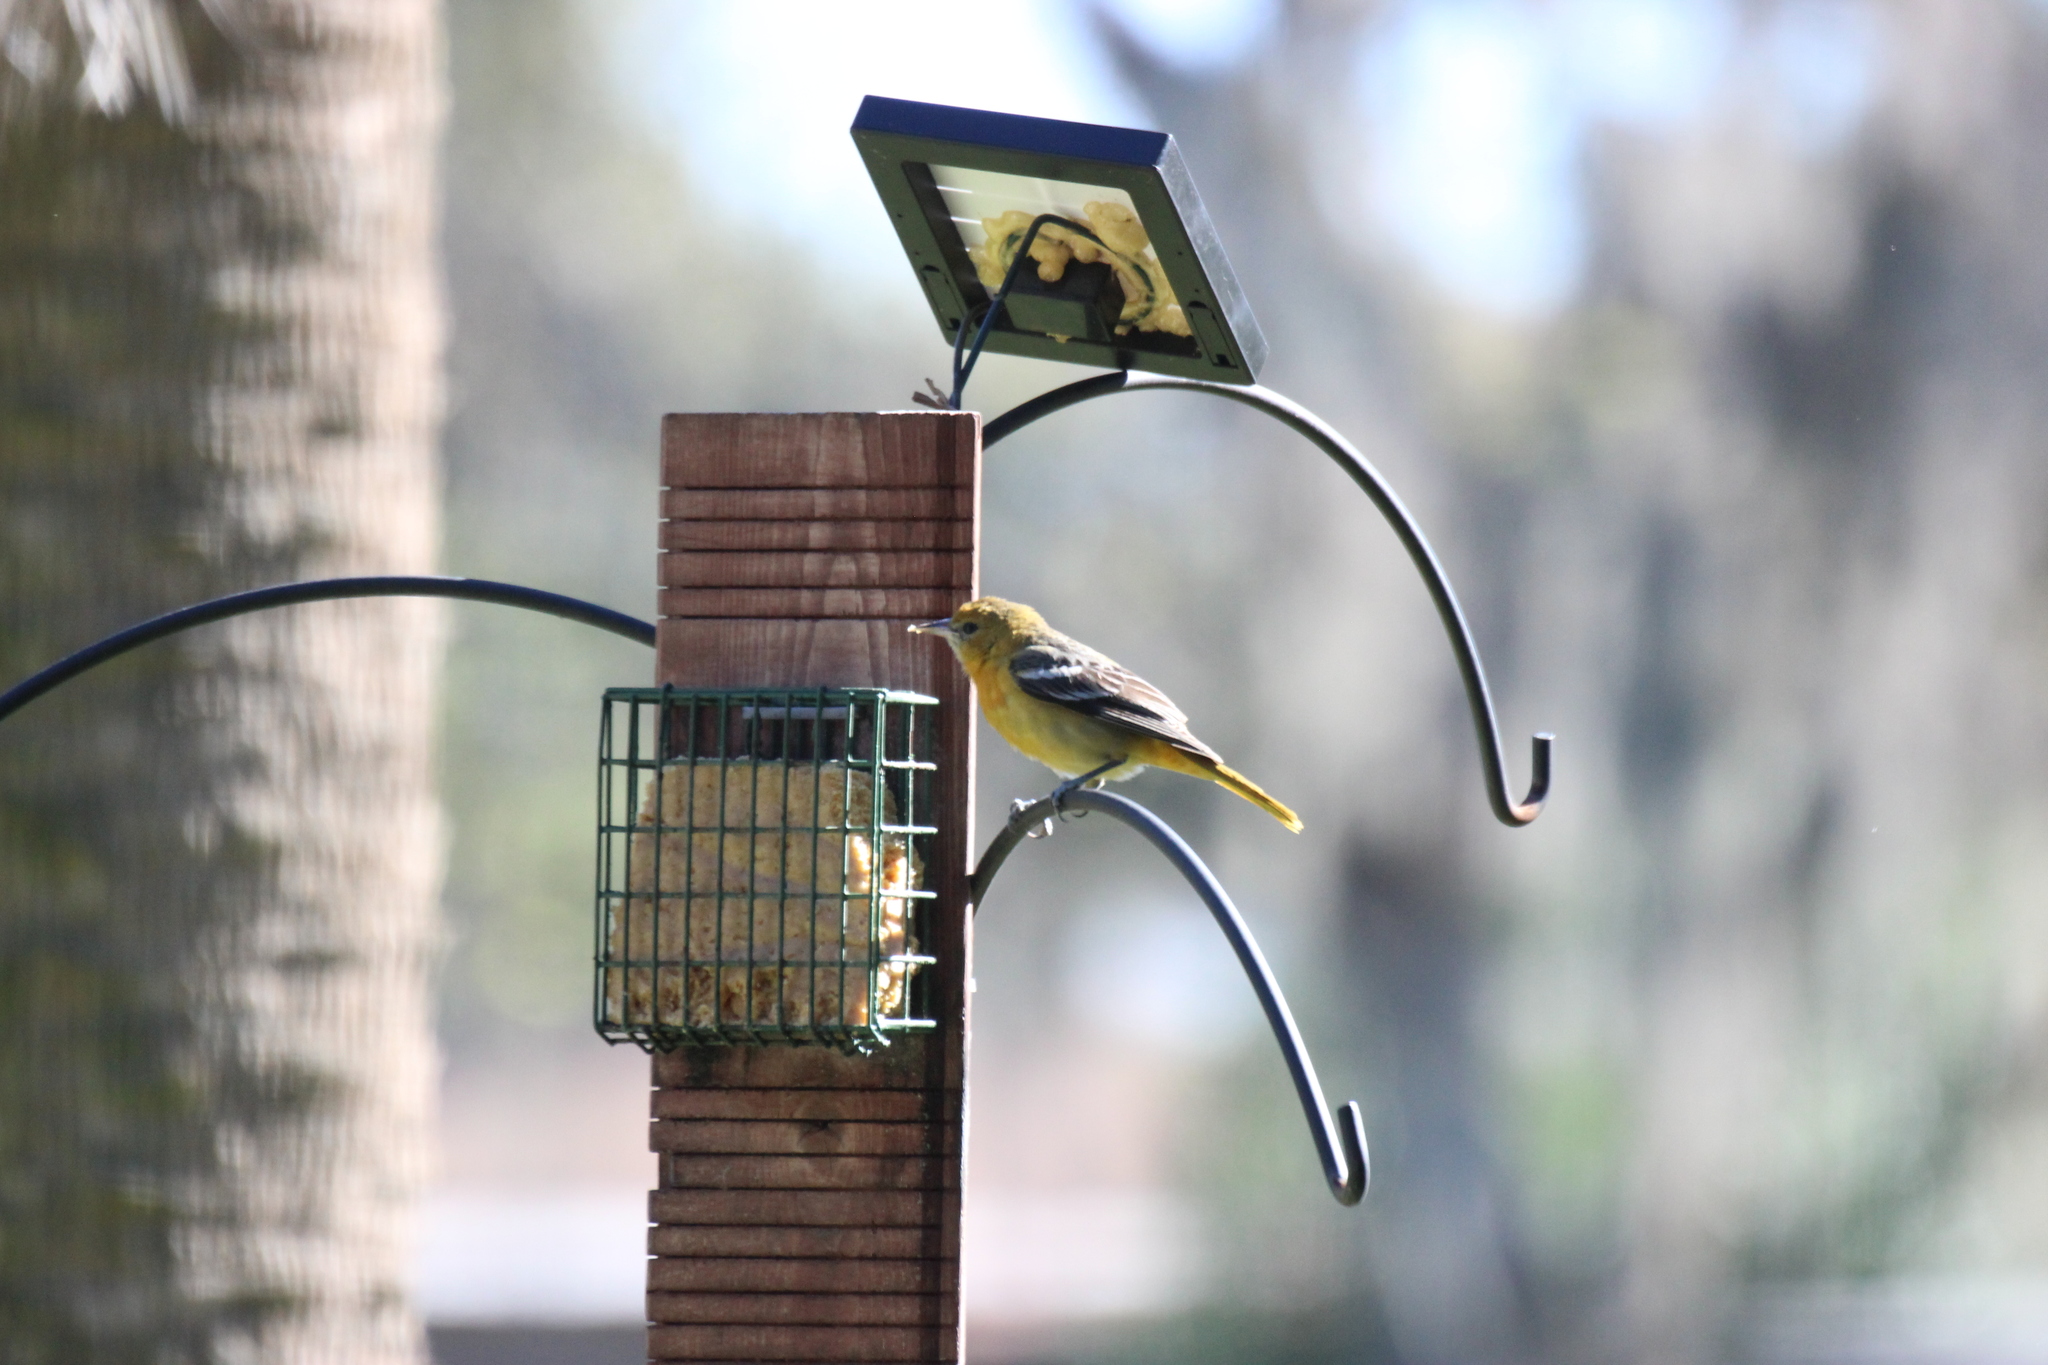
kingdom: Animalia
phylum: Chordata
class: Aves
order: Passeriformes
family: Icteridae
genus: Icterus
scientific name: Icterus galbula
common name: Baltimore oriole
